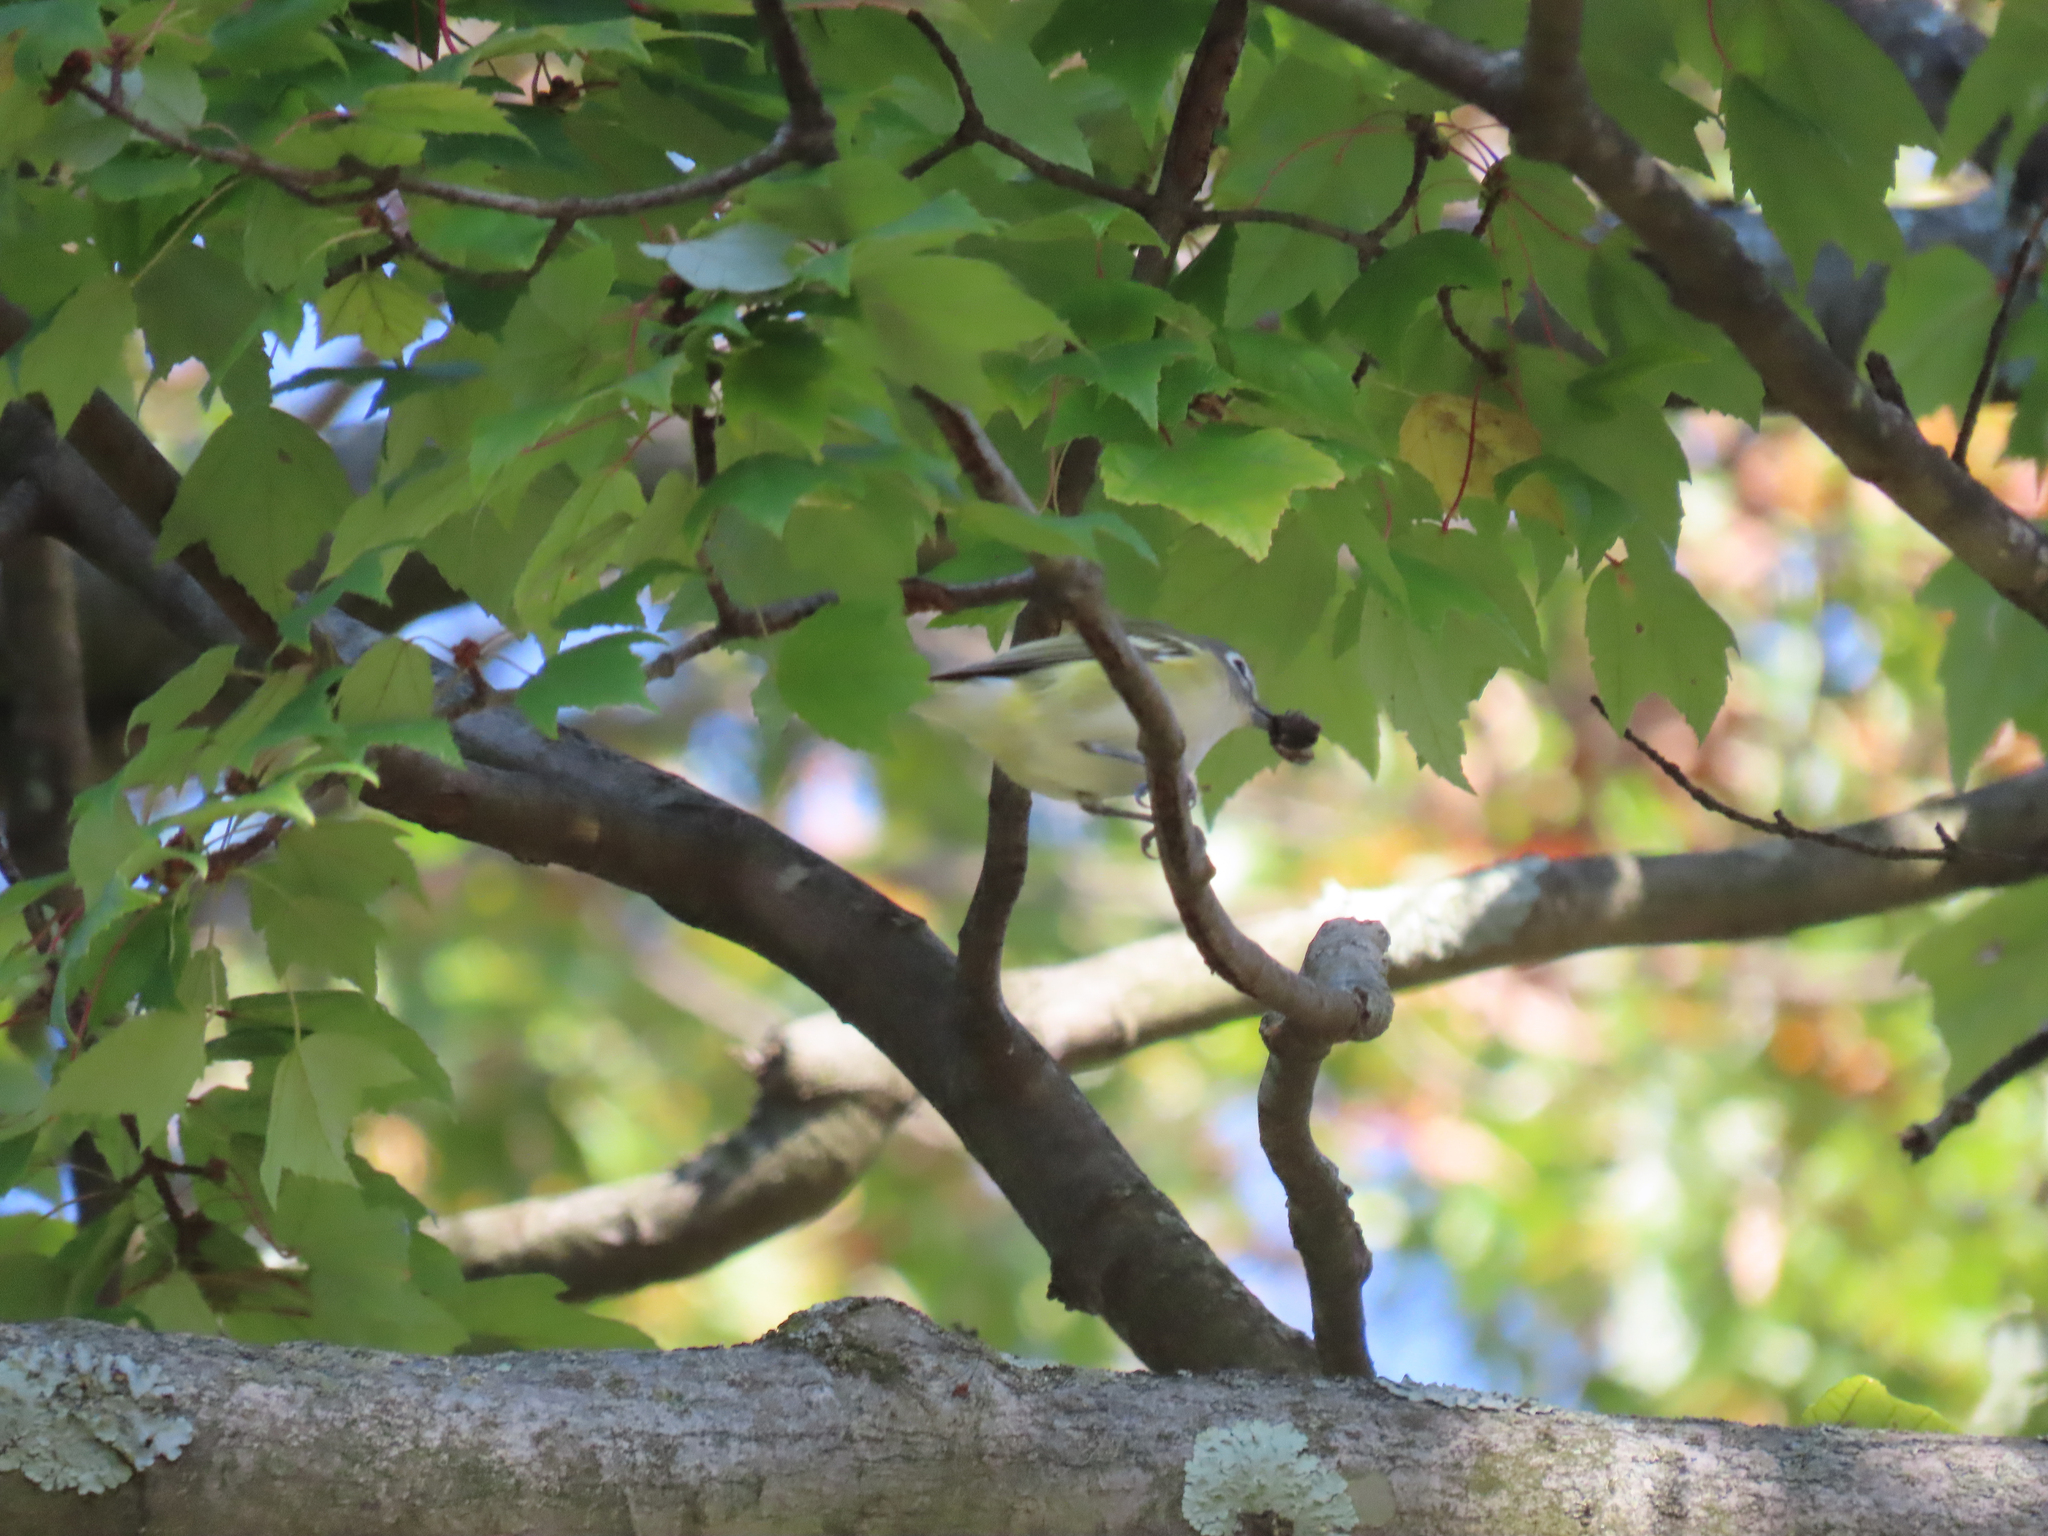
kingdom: Animalia
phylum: Chordata
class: Aves
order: Passeriformes
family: Vireonidae
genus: Vireo
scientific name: Vireo solitarius
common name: Blue-headed vireo
